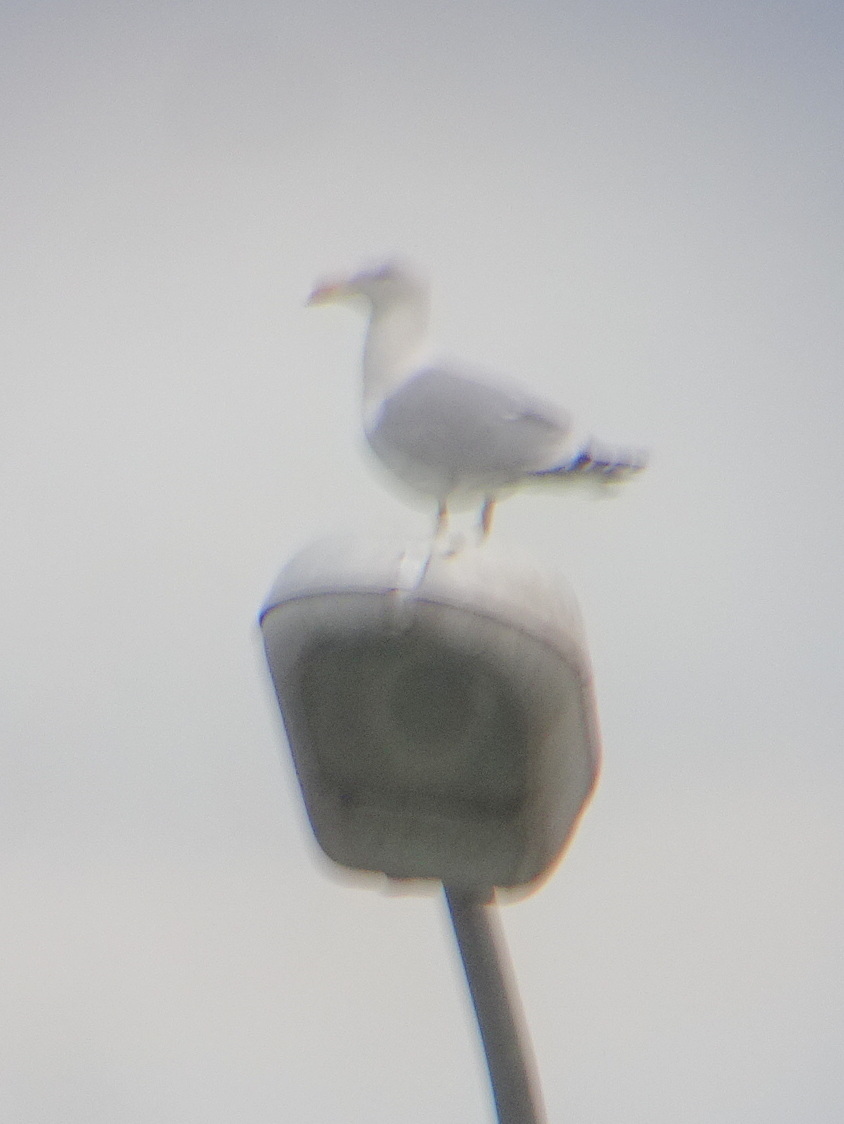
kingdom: Animalia
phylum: Chordata
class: Aves
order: Charadriiformes
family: Laridae
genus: Larus
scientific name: Larus michahellis
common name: Yellow-legged gull
